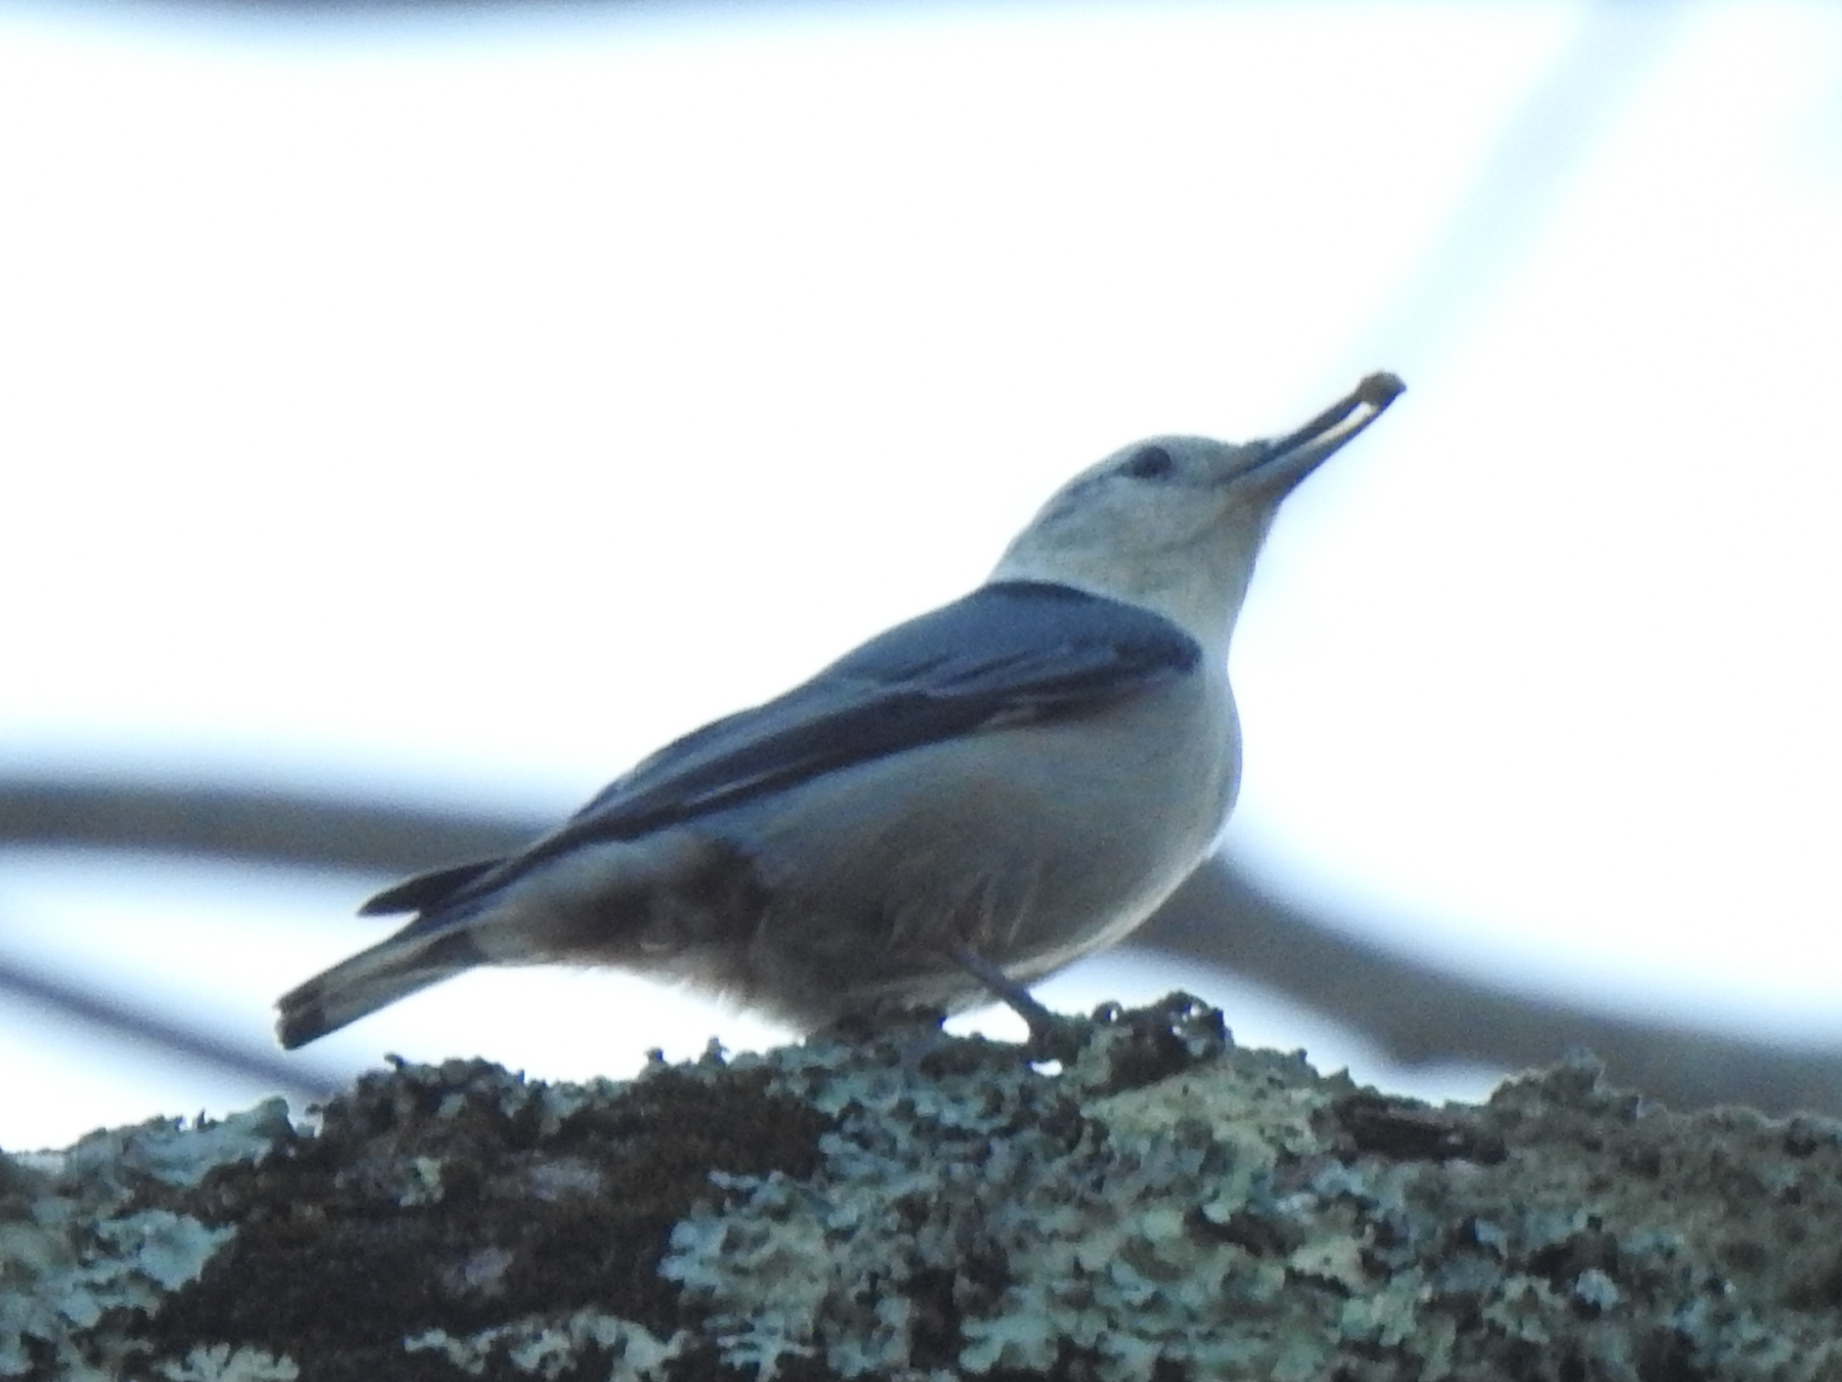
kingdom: Animalia
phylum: Chordata
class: Aves
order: Passeriformes
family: Sittidae
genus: Sitta
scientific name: Sitta carolinensis
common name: White-breasted nuthatch
